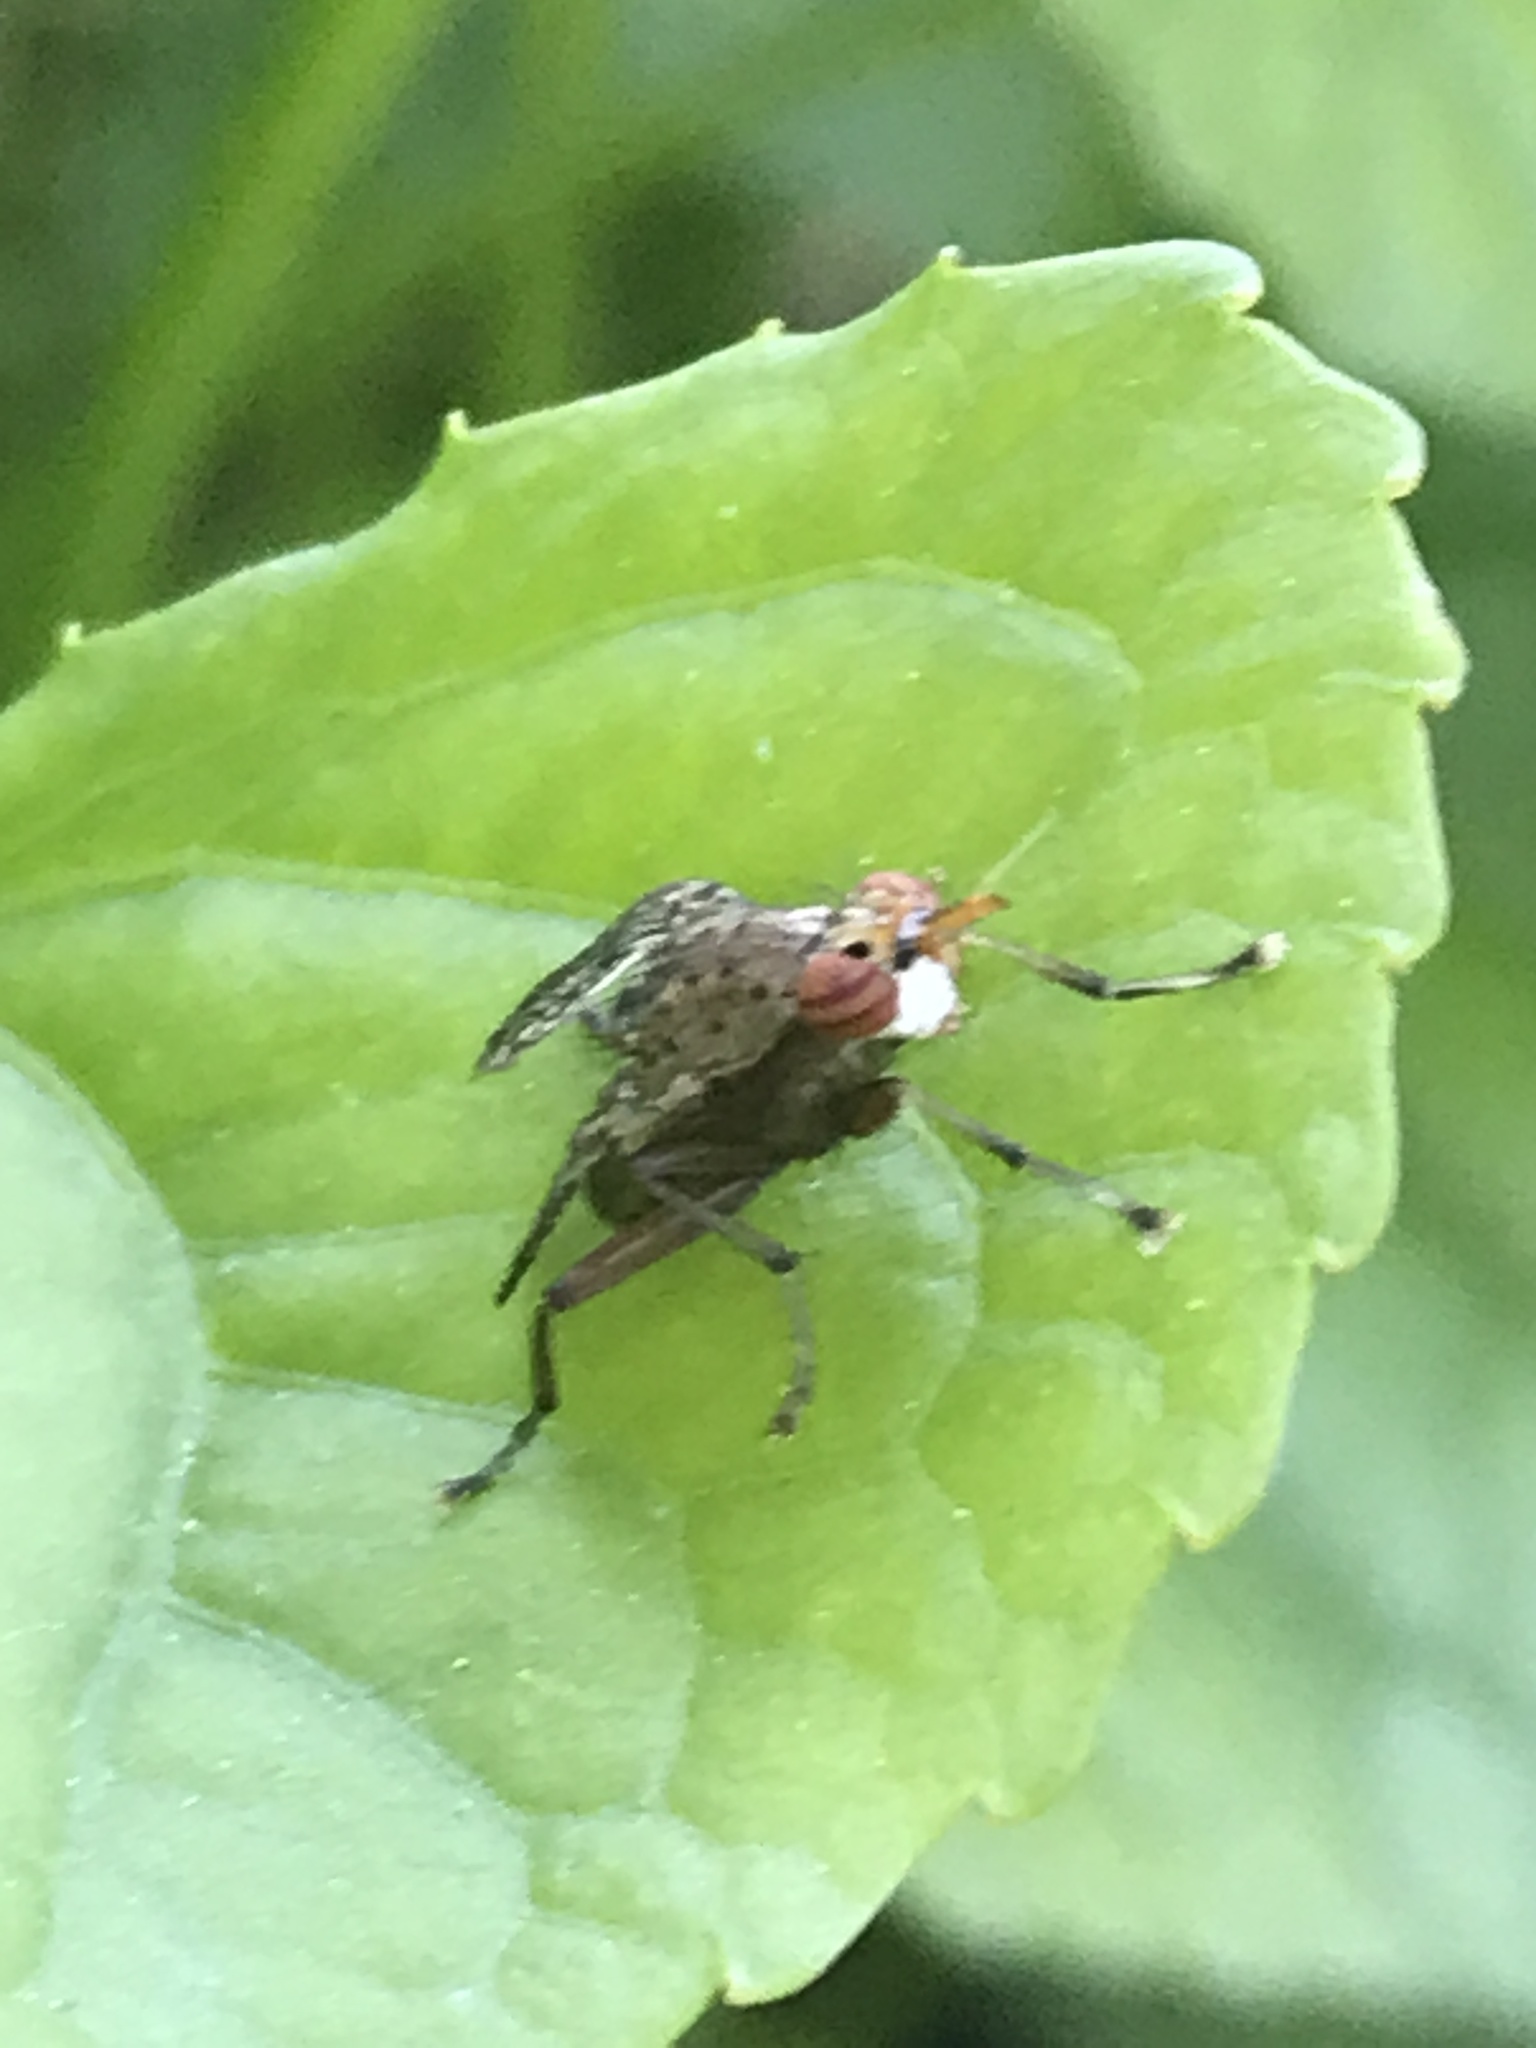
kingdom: Animalia
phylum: Arthropoda
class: Insecta
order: Diptera
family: Sciomyzidae
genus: Euthycera
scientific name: Euthycera flavescens
